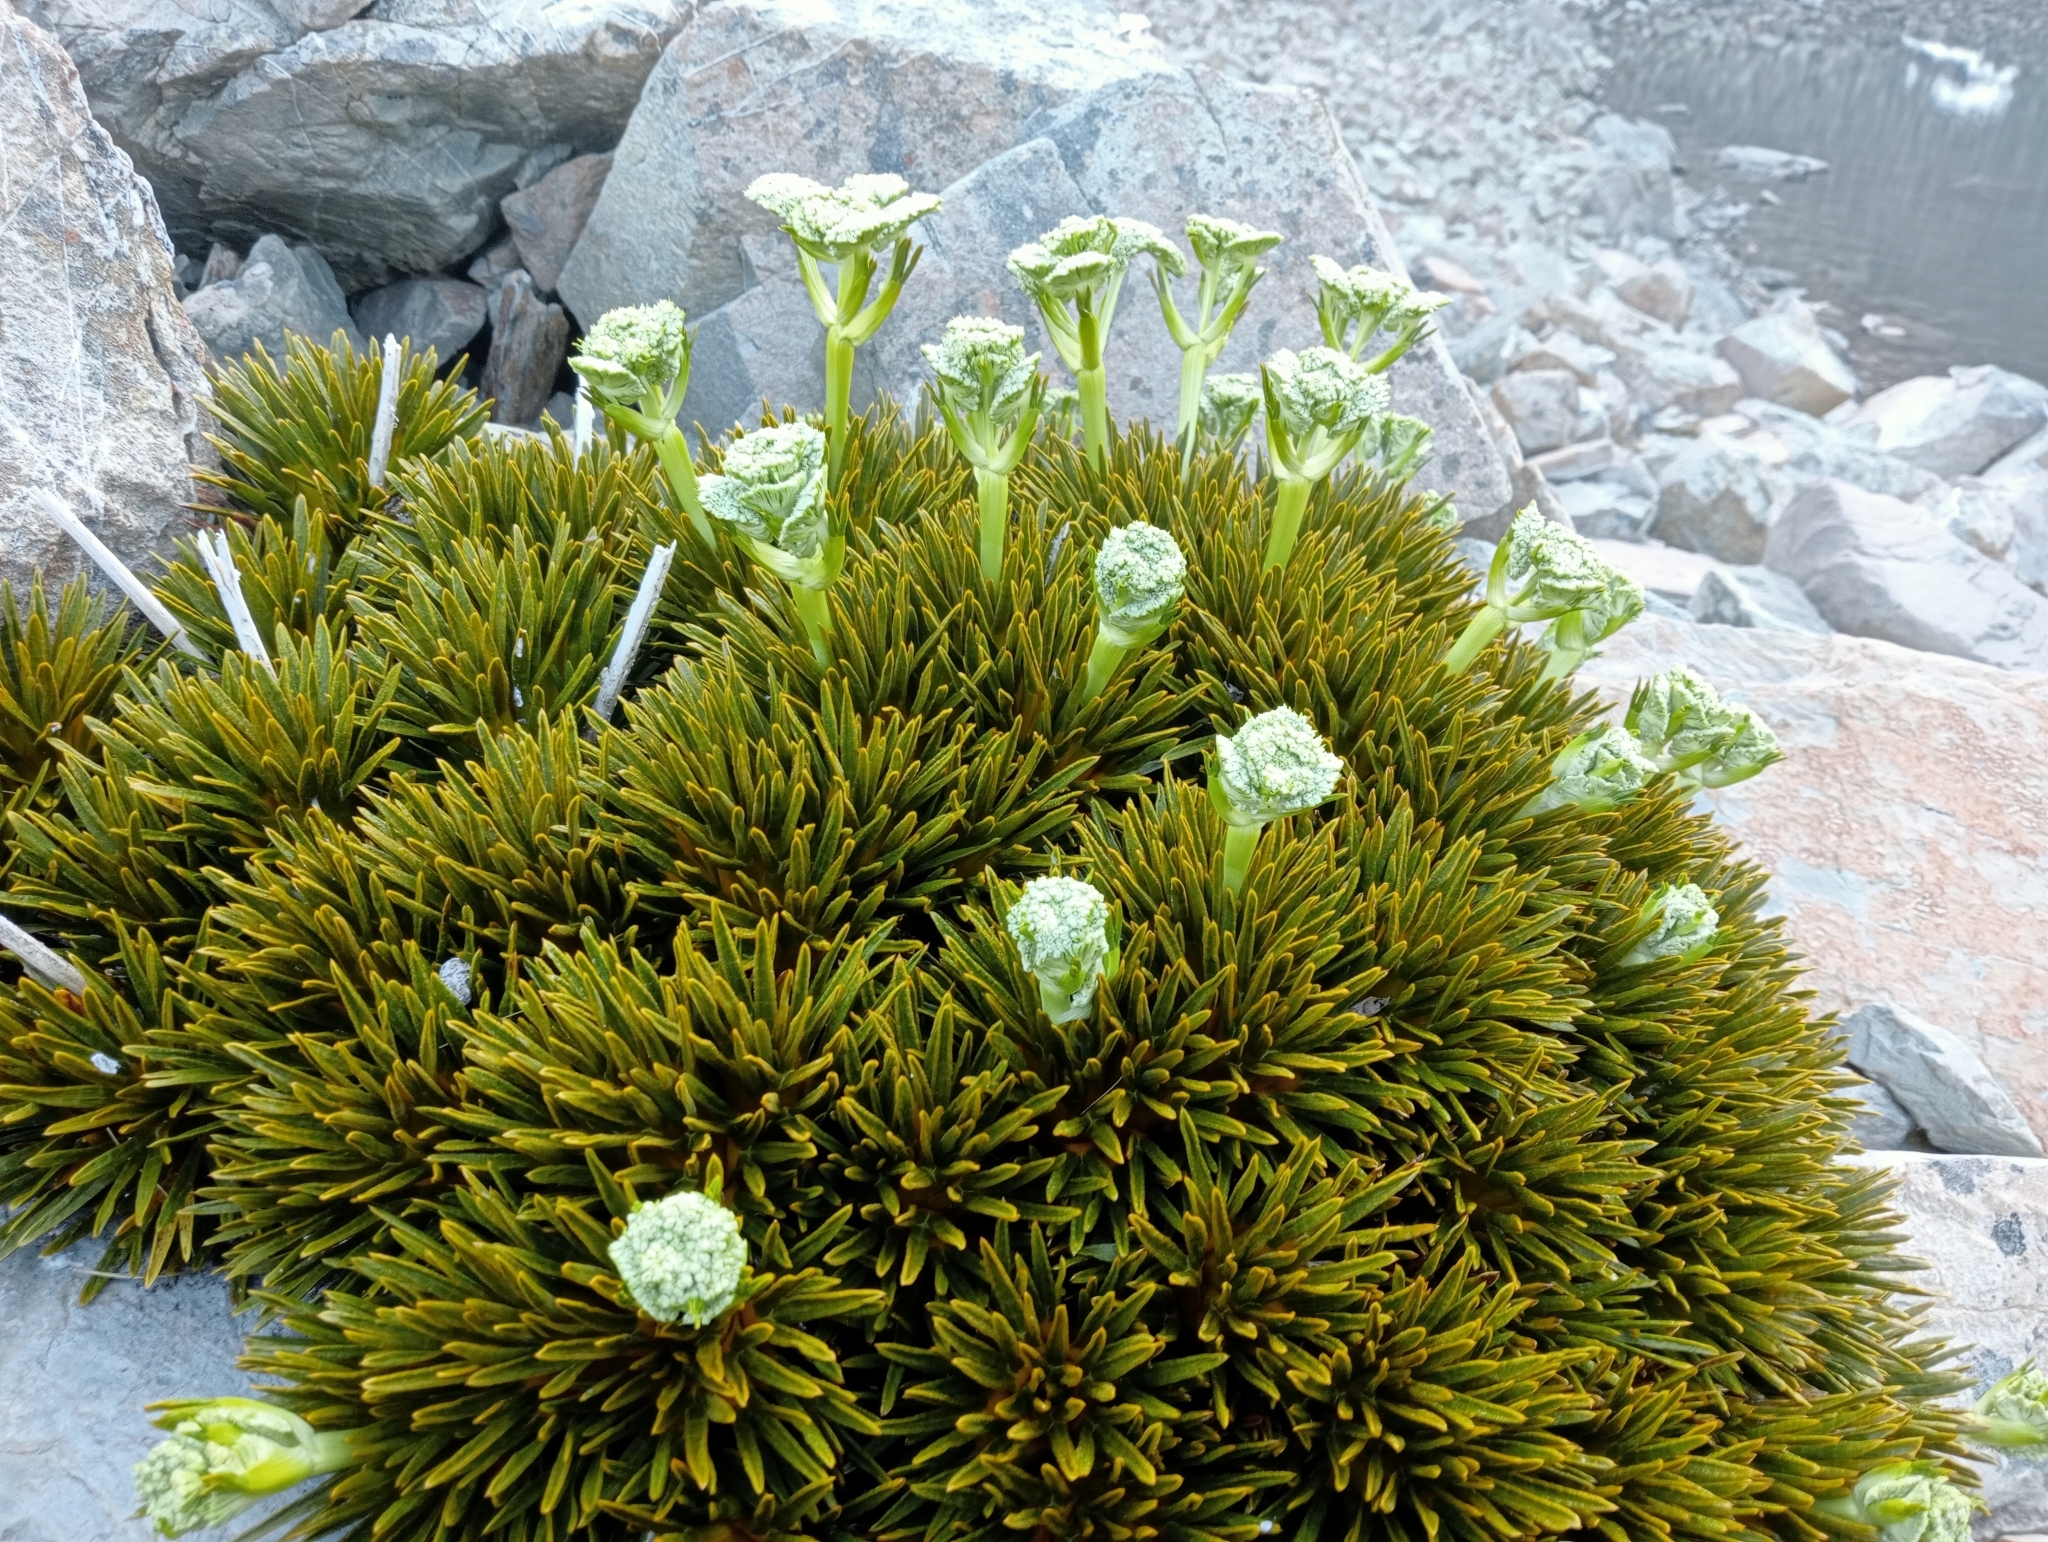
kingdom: Plantae
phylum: Tracheophyta
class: Magnoliopsida
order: Apiales
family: Apiaceae
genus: Aciphylla
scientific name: Aciphylla dobsonii
